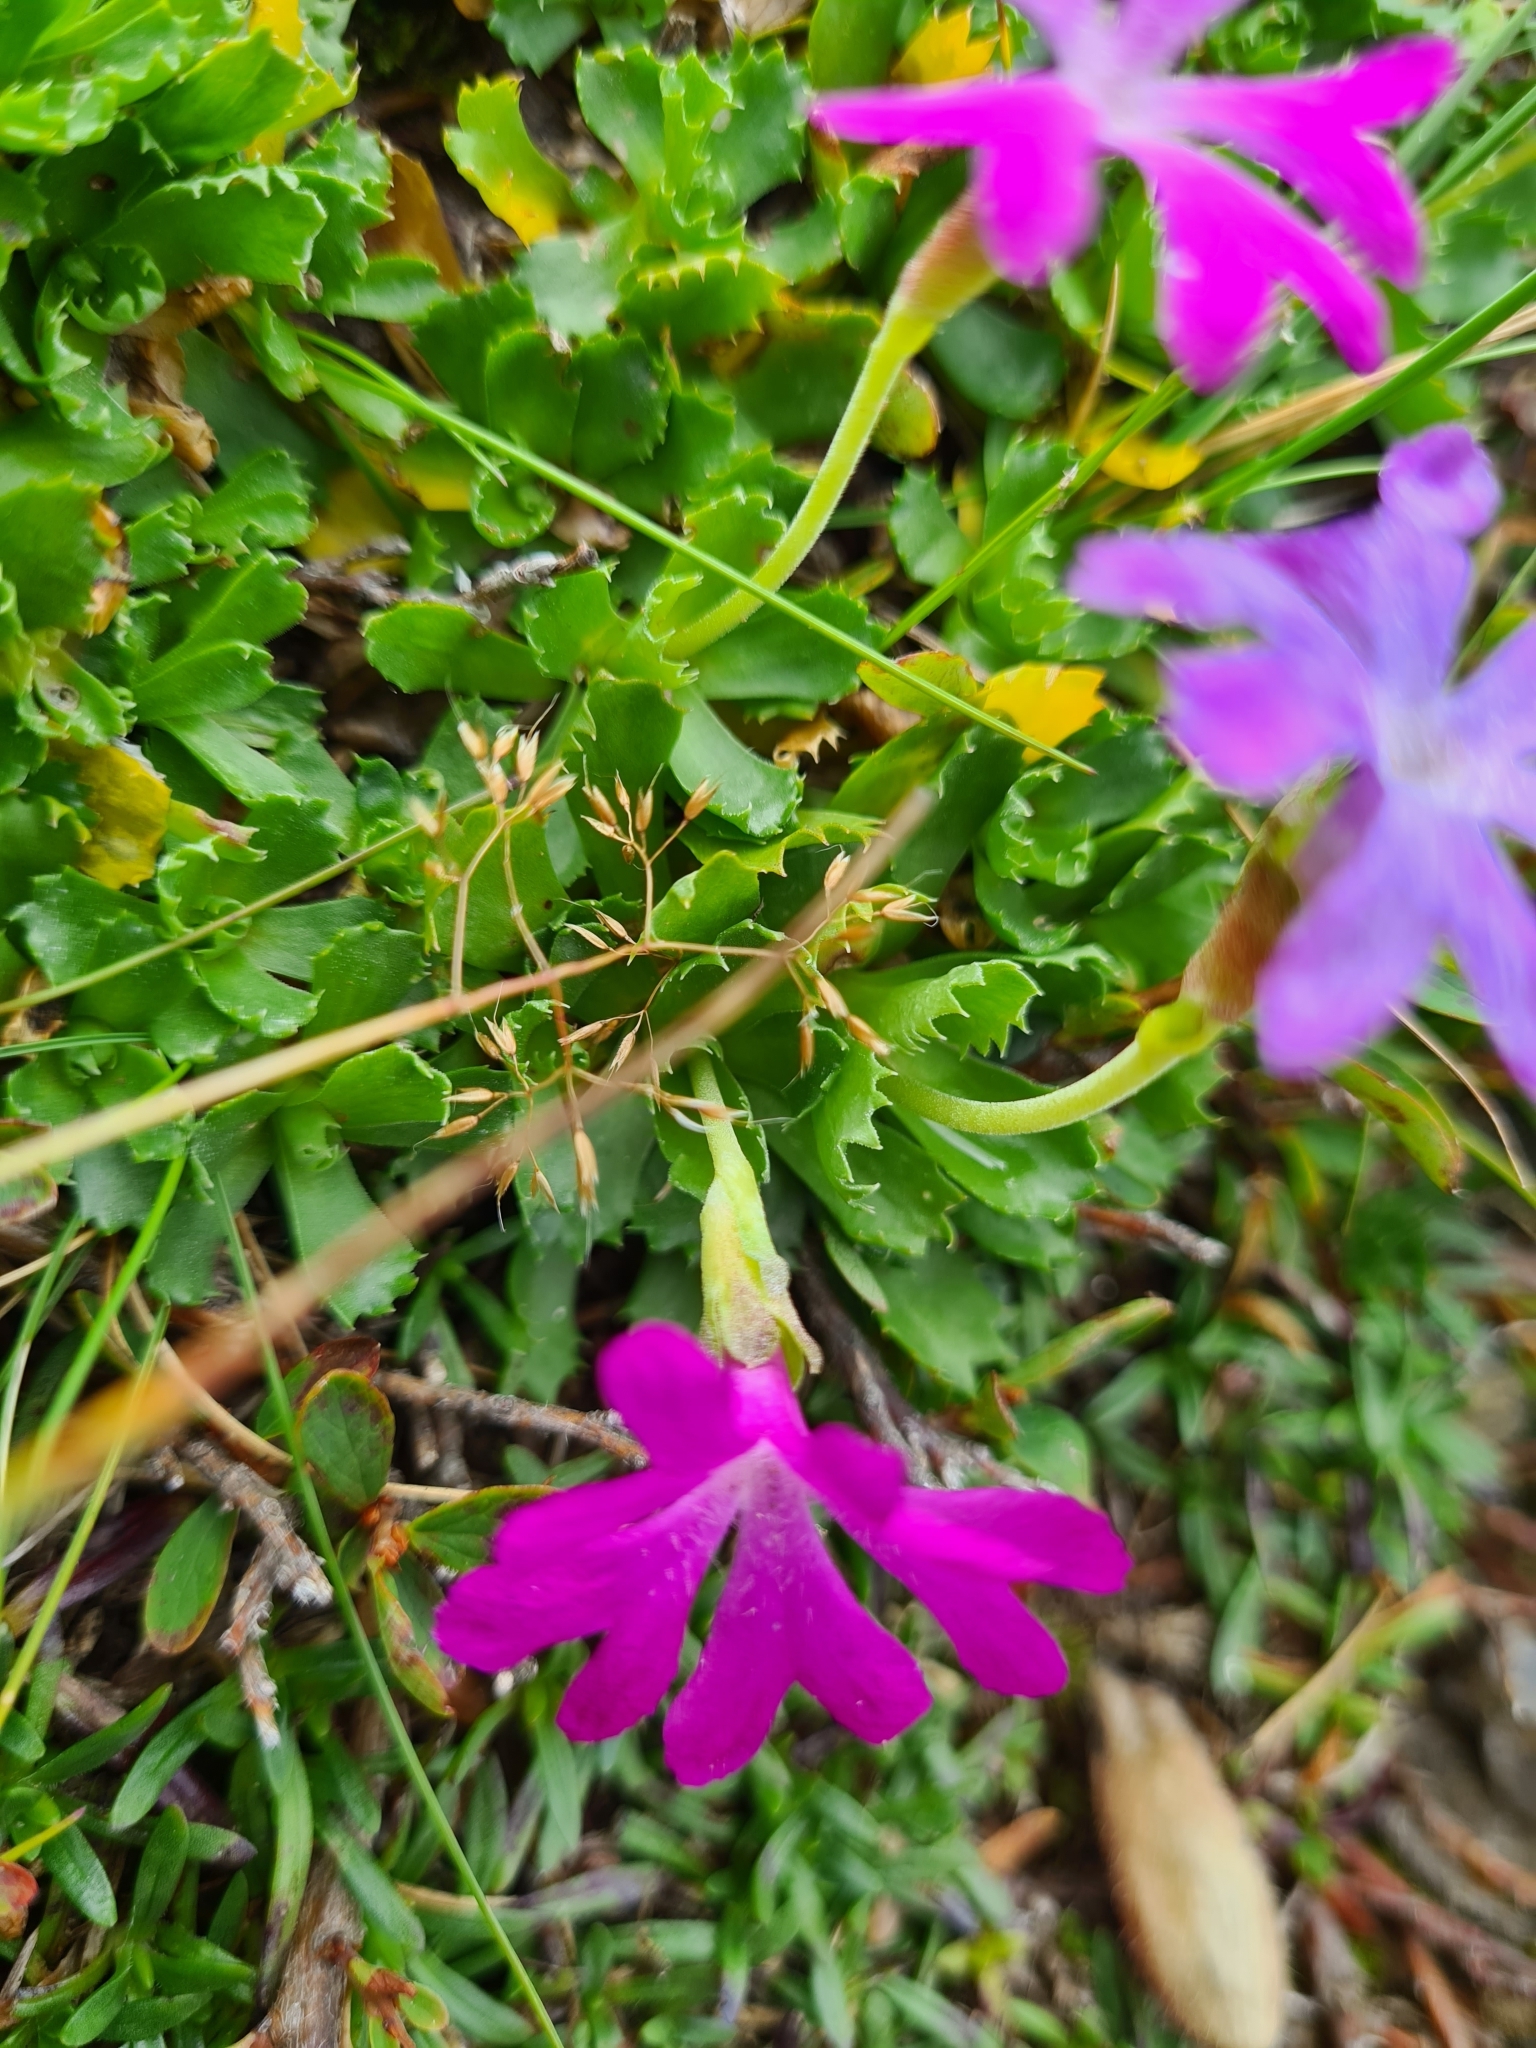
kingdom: Plantae
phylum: Tracheophyta
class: Magnoliopsida
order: Ericales
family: Primulaceae
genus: Primula
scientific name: Primula minima
